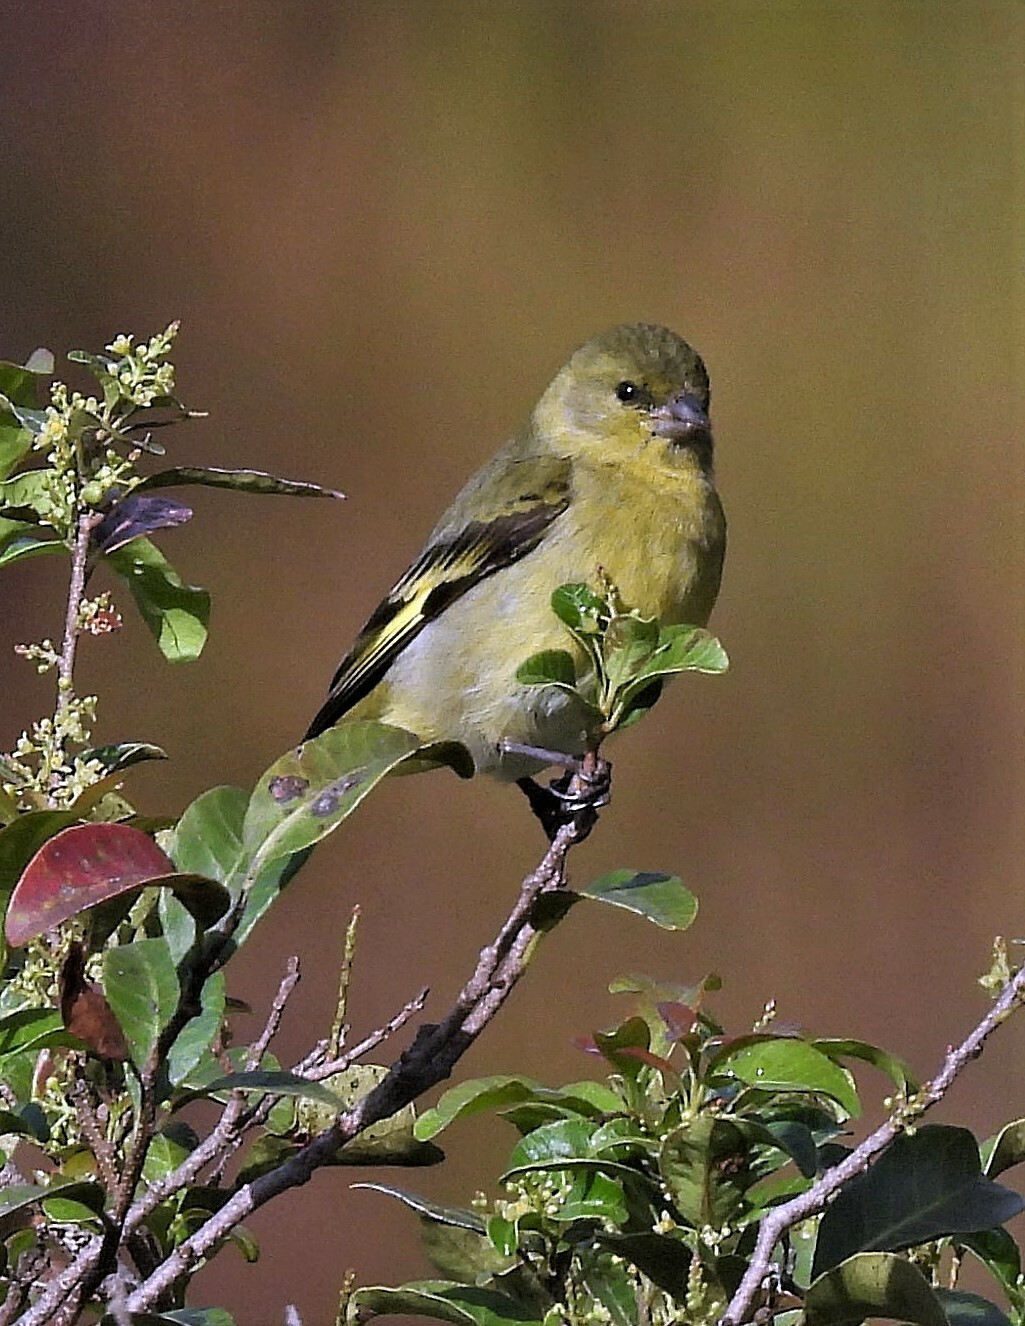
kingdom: Animalia
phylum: Chordata
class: Aves
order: Passeriformes
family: Fringillidae
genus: Spinus
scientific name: Spinus magellanicus
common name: Hooded siskin
